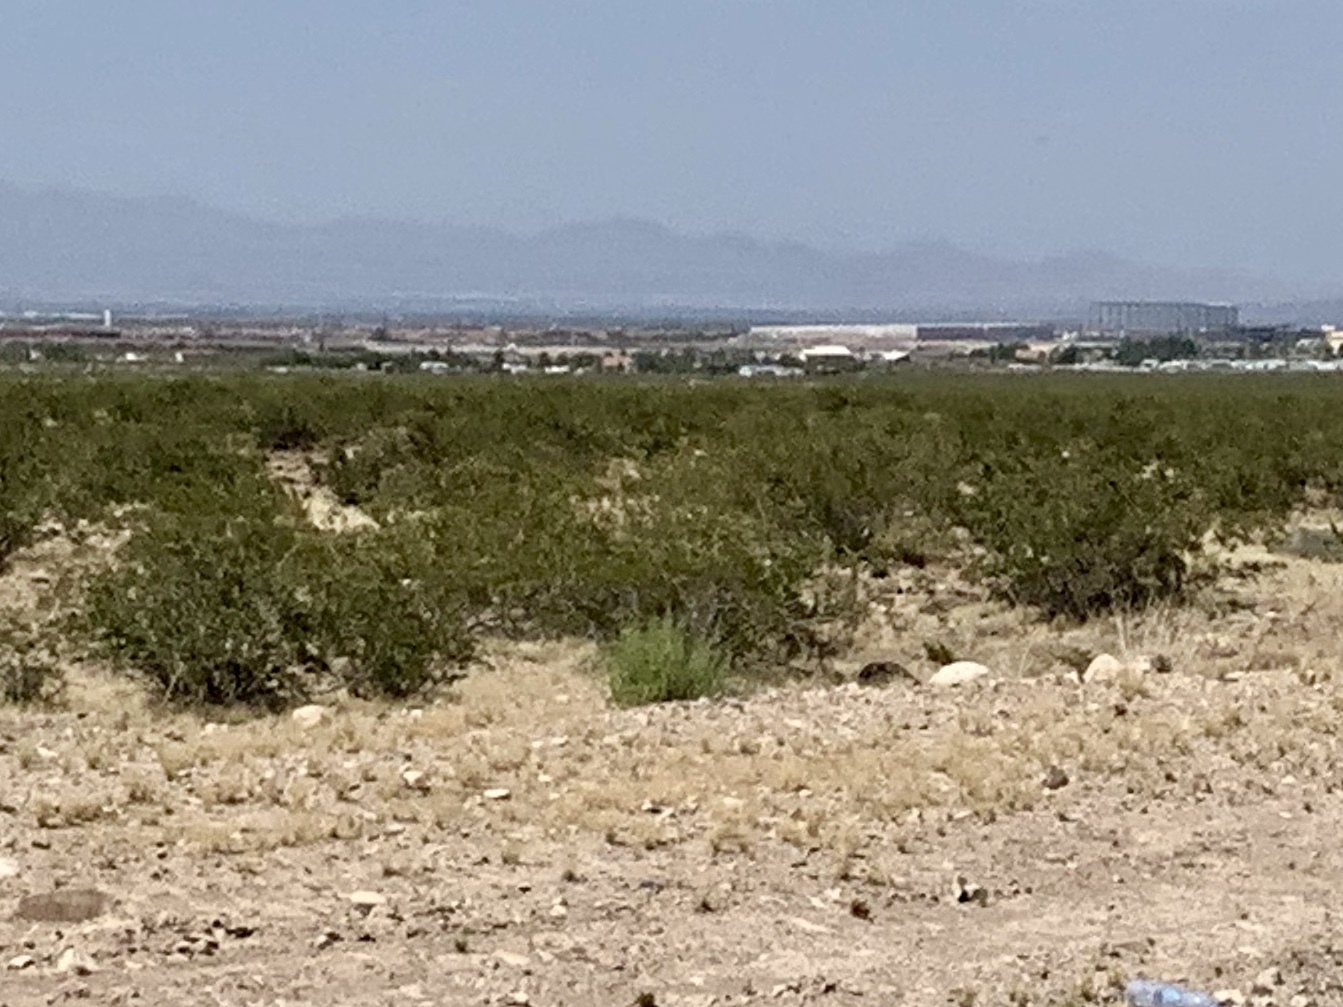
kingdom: Plantae
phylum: Tracheophyta
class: Magnoliopsida
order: Zygophyllales
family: Zygophyllaceae
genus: Larrea
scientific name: Larrea tridentata
